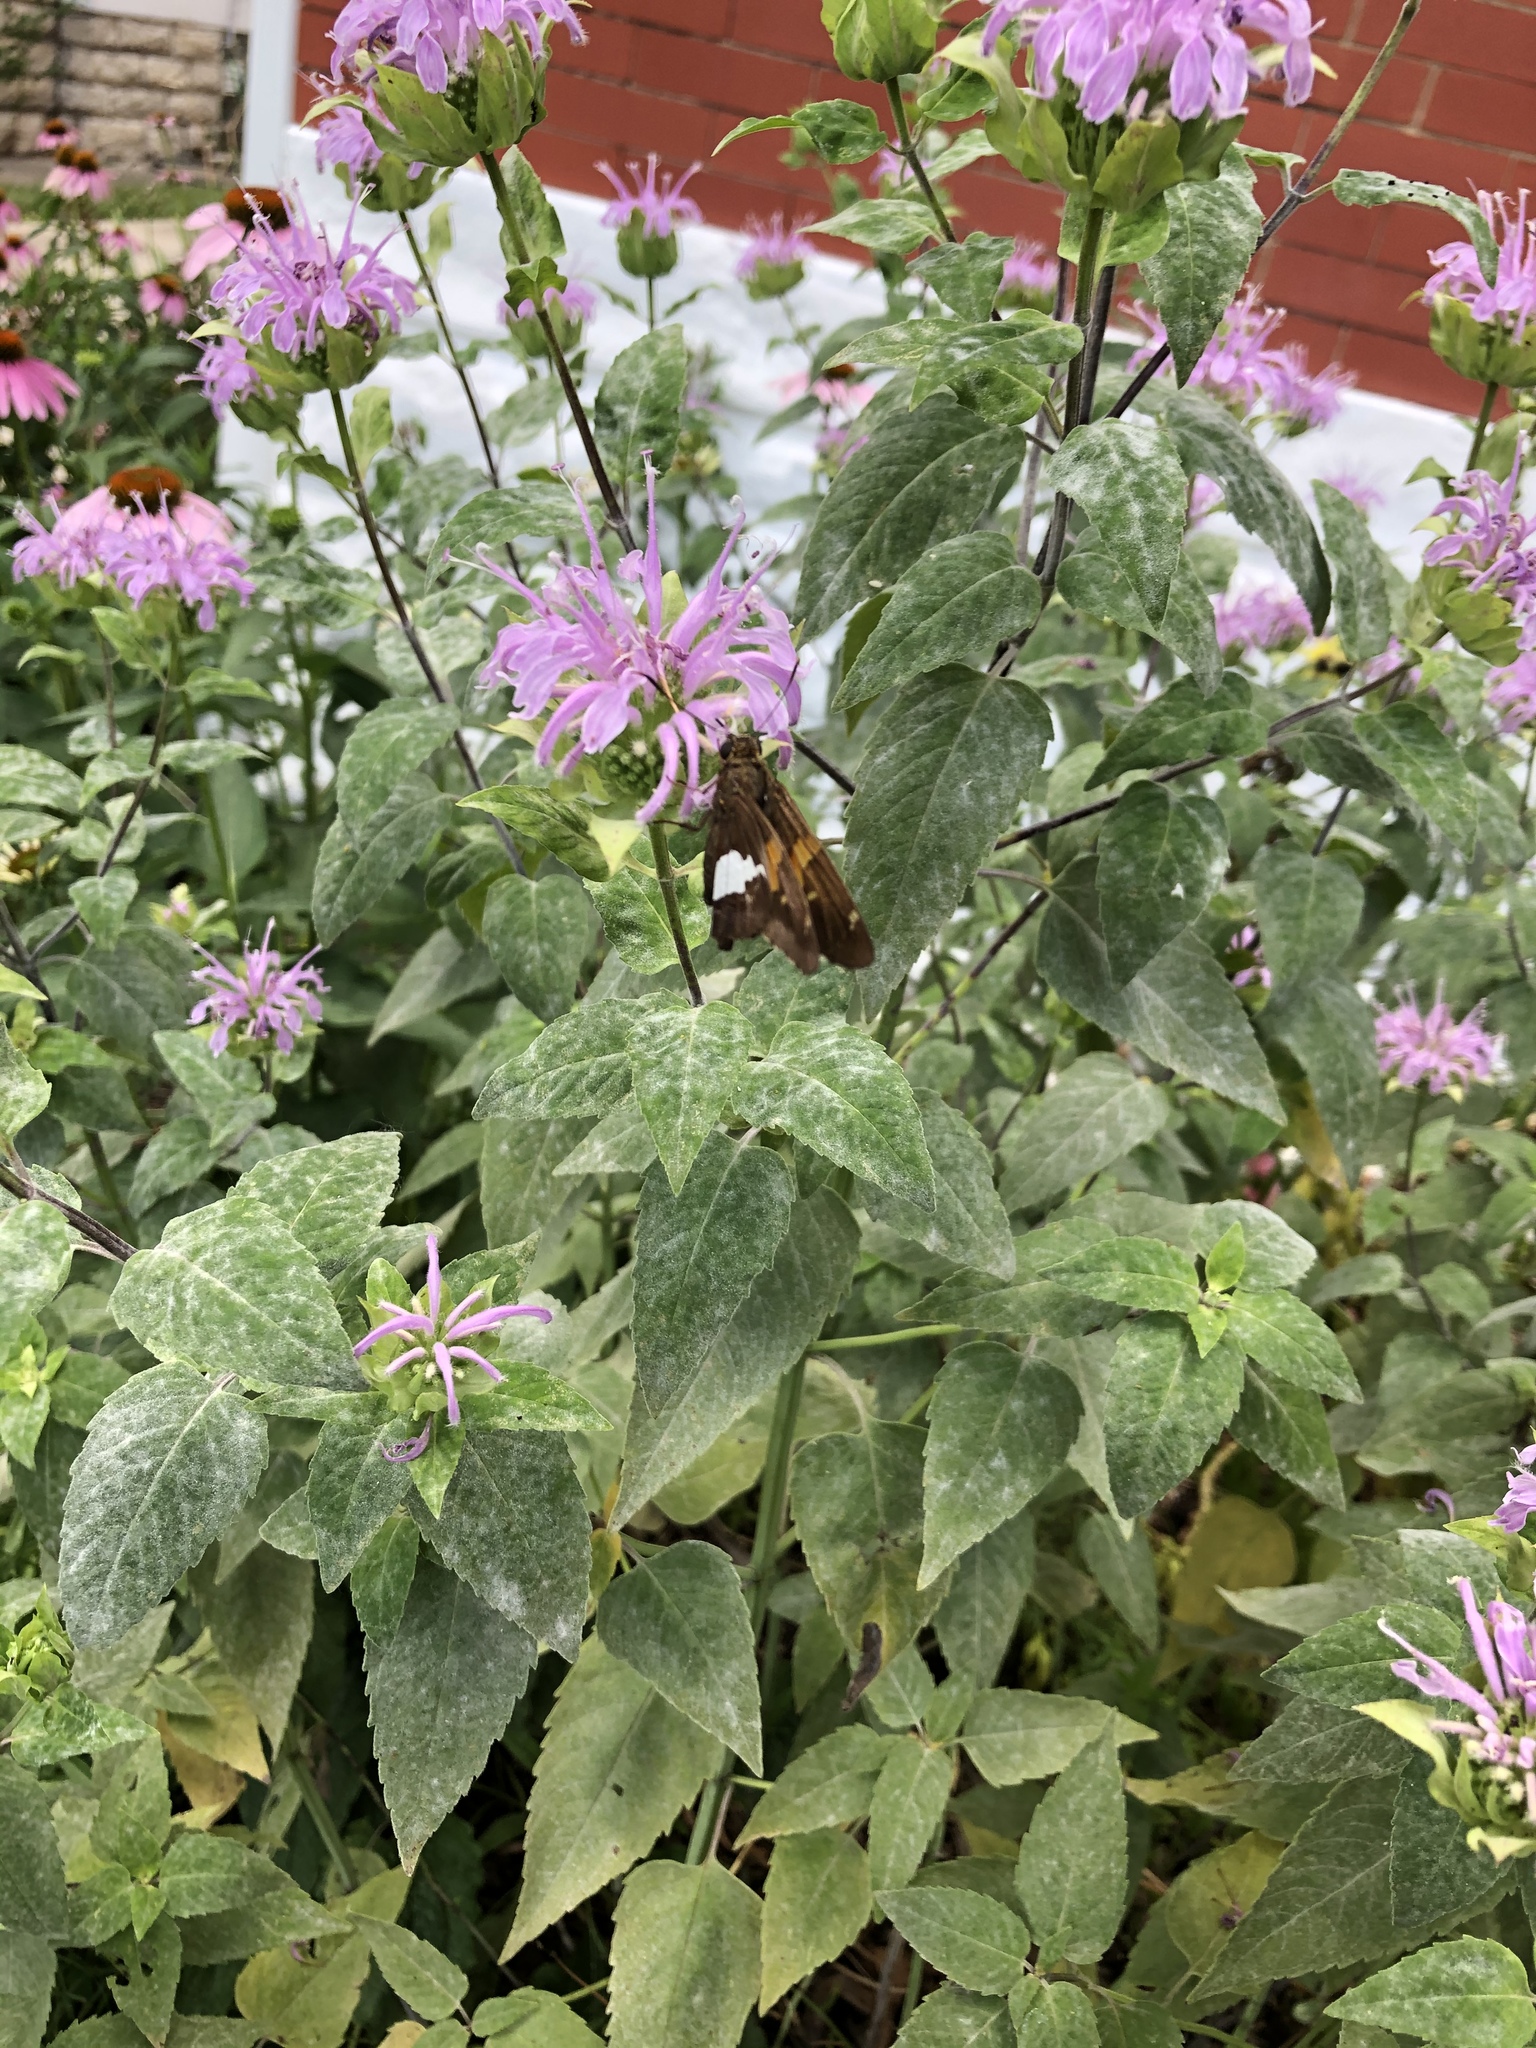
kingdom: Animalia
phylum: Arthropoda
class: Insecta
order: Lepidoptera
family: Hesperiidae
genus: Epargyreus
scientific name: Epargyreus clarus
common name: Silver-spotted skipper
